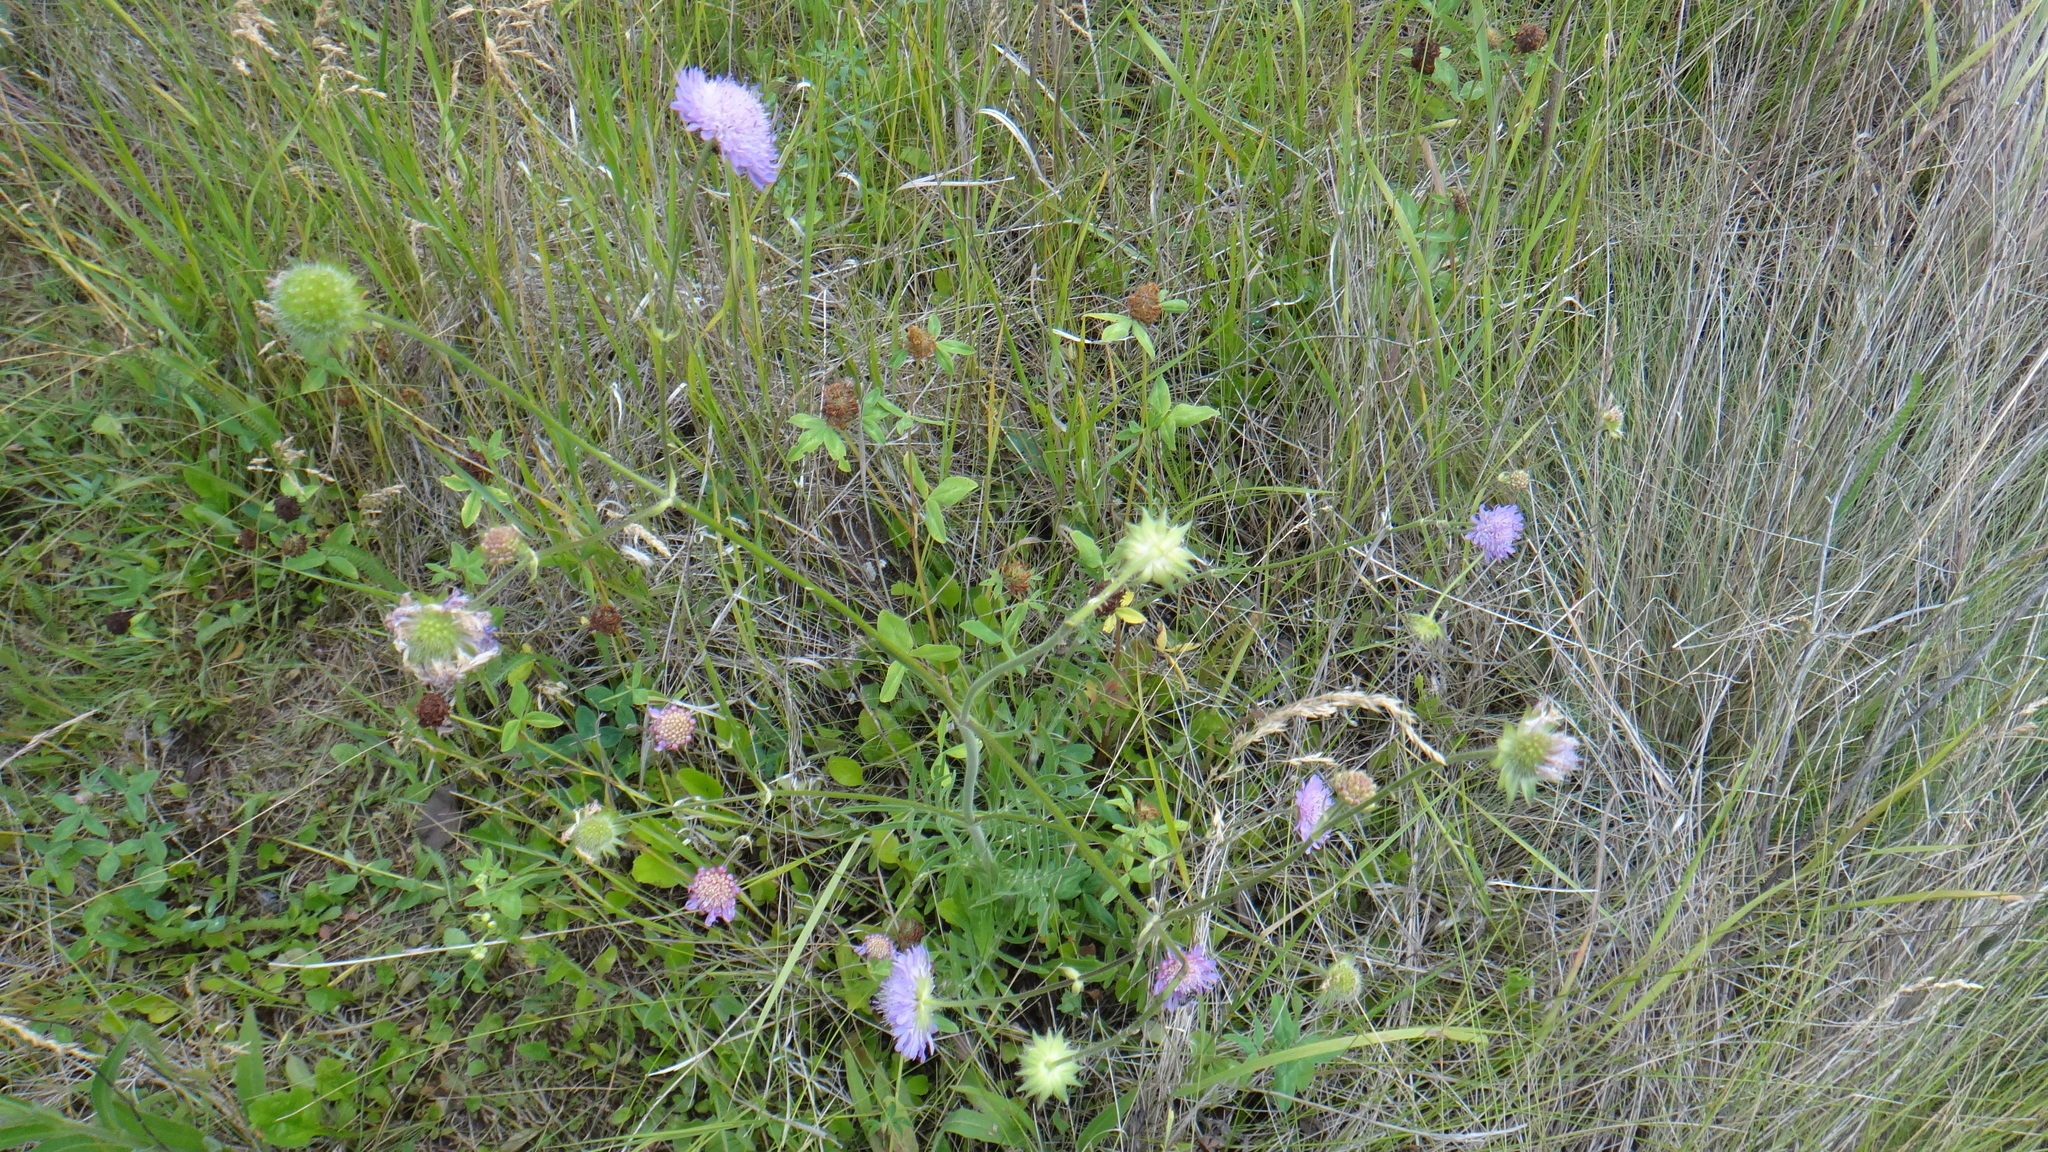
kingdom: Plantae
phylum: Tracheophyta
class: Magnoliopsida
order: Dipsacales
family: Caprifoliaceae
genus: Knautia
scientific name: Knautia arvensis
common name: Field scabiosa
